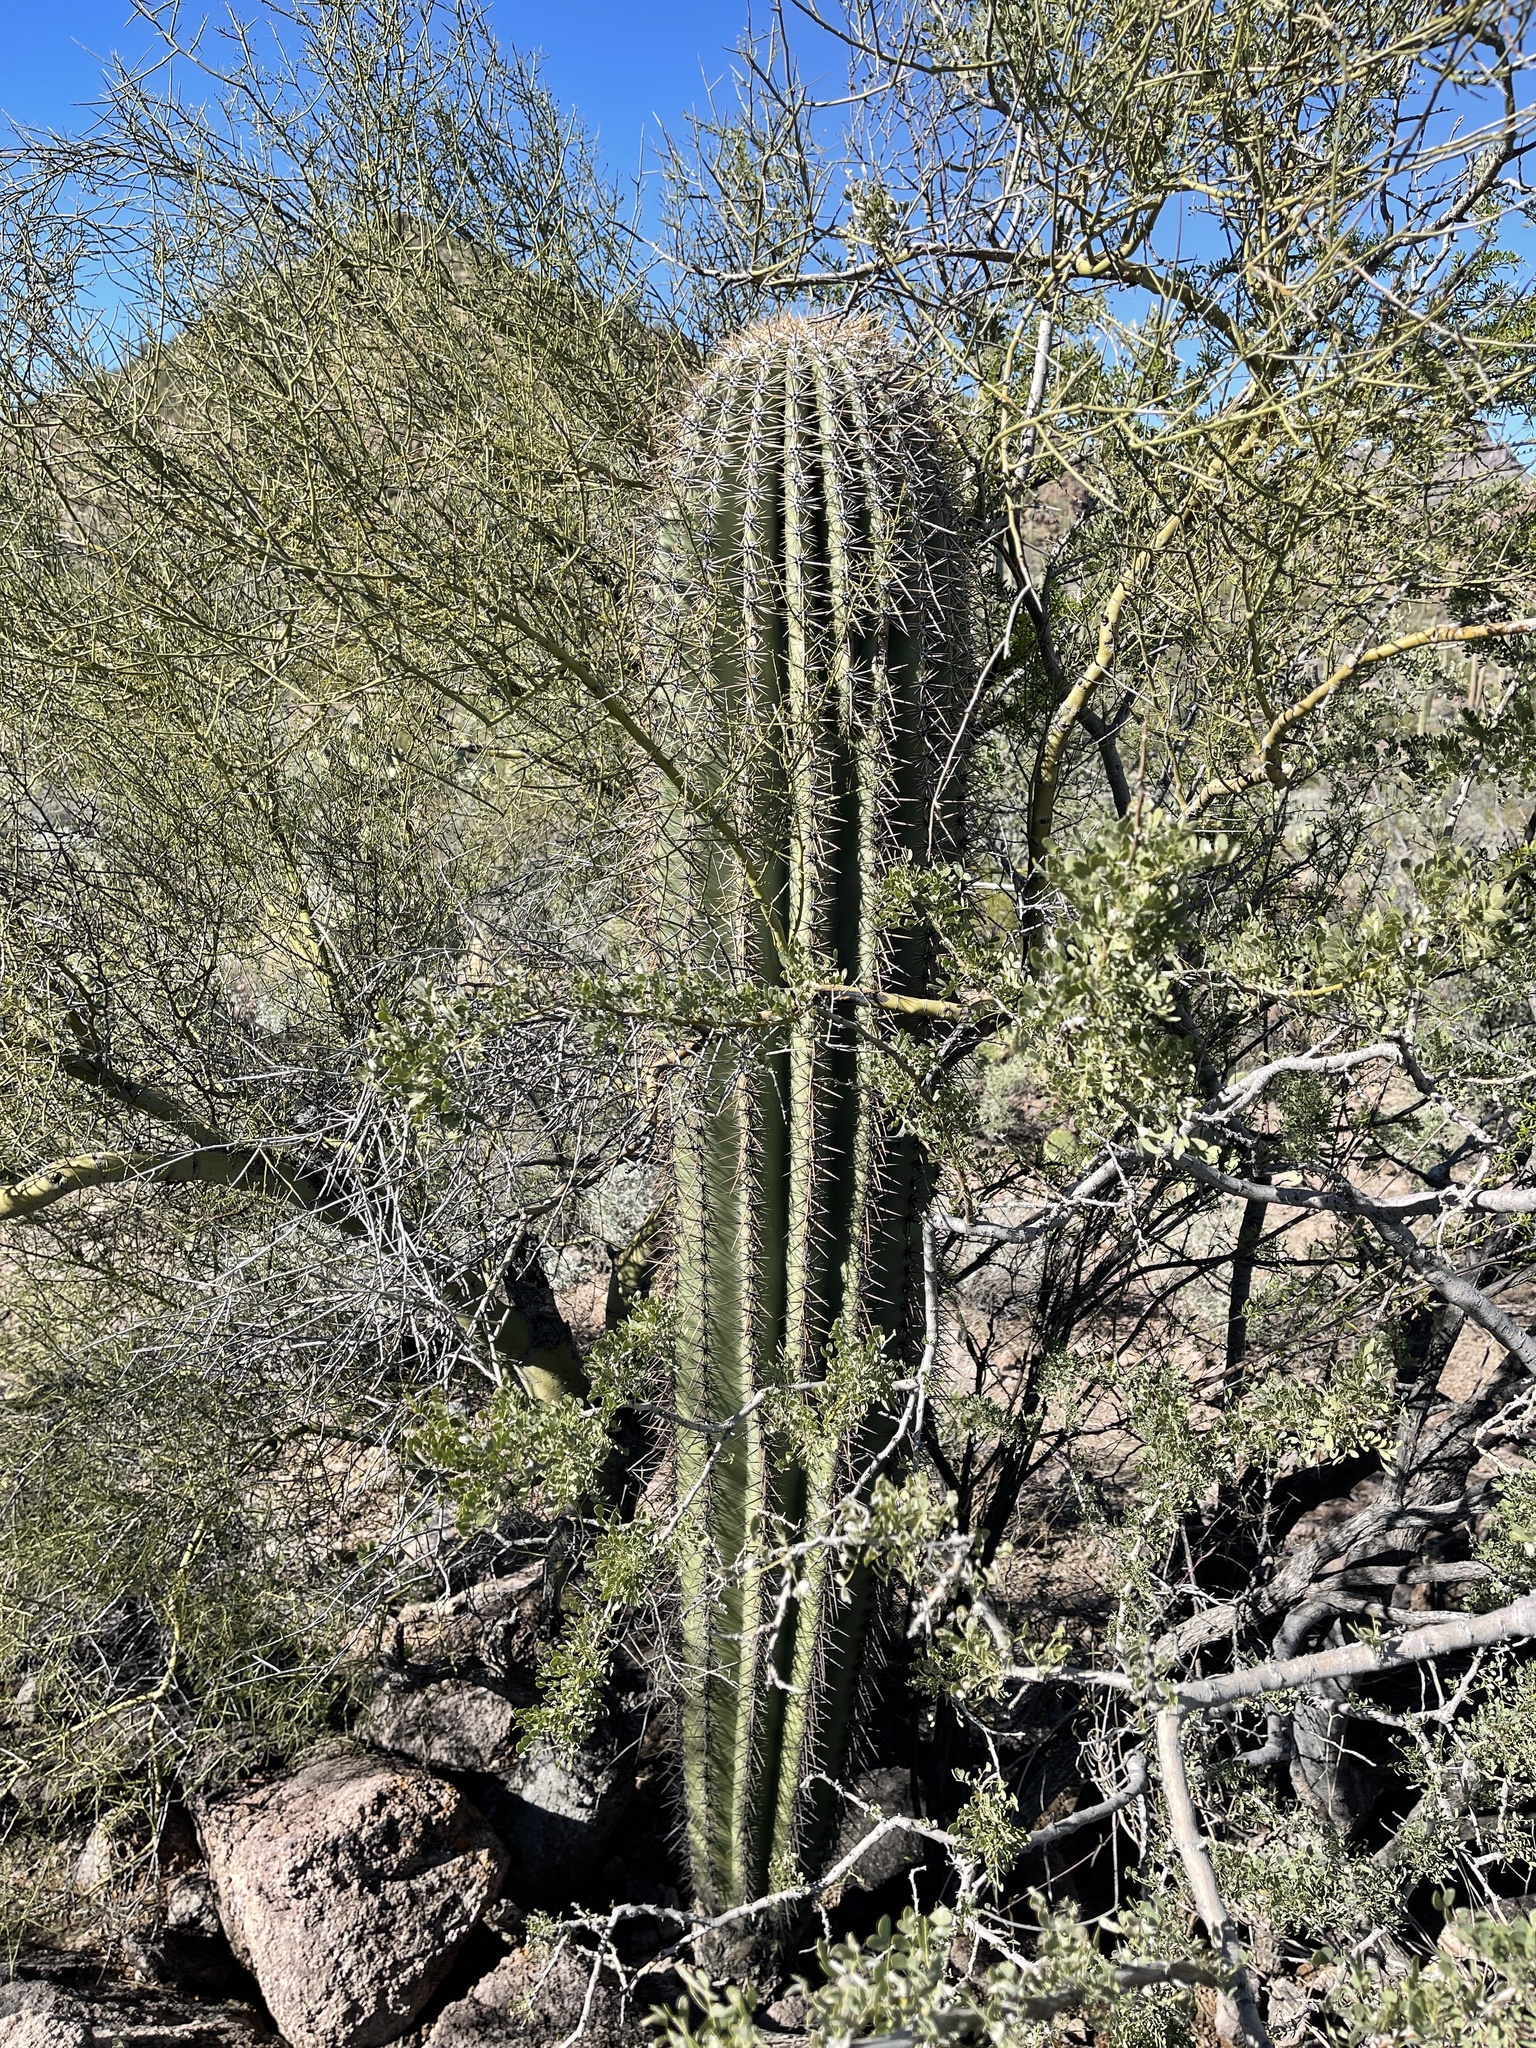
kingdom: Plantae
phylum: Tracheophyta
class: Magnoliopsida
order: Caryophyllales
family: Cactaceae
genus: Carnegiea
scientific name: Carnegiea gigantea
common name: Saguaro
